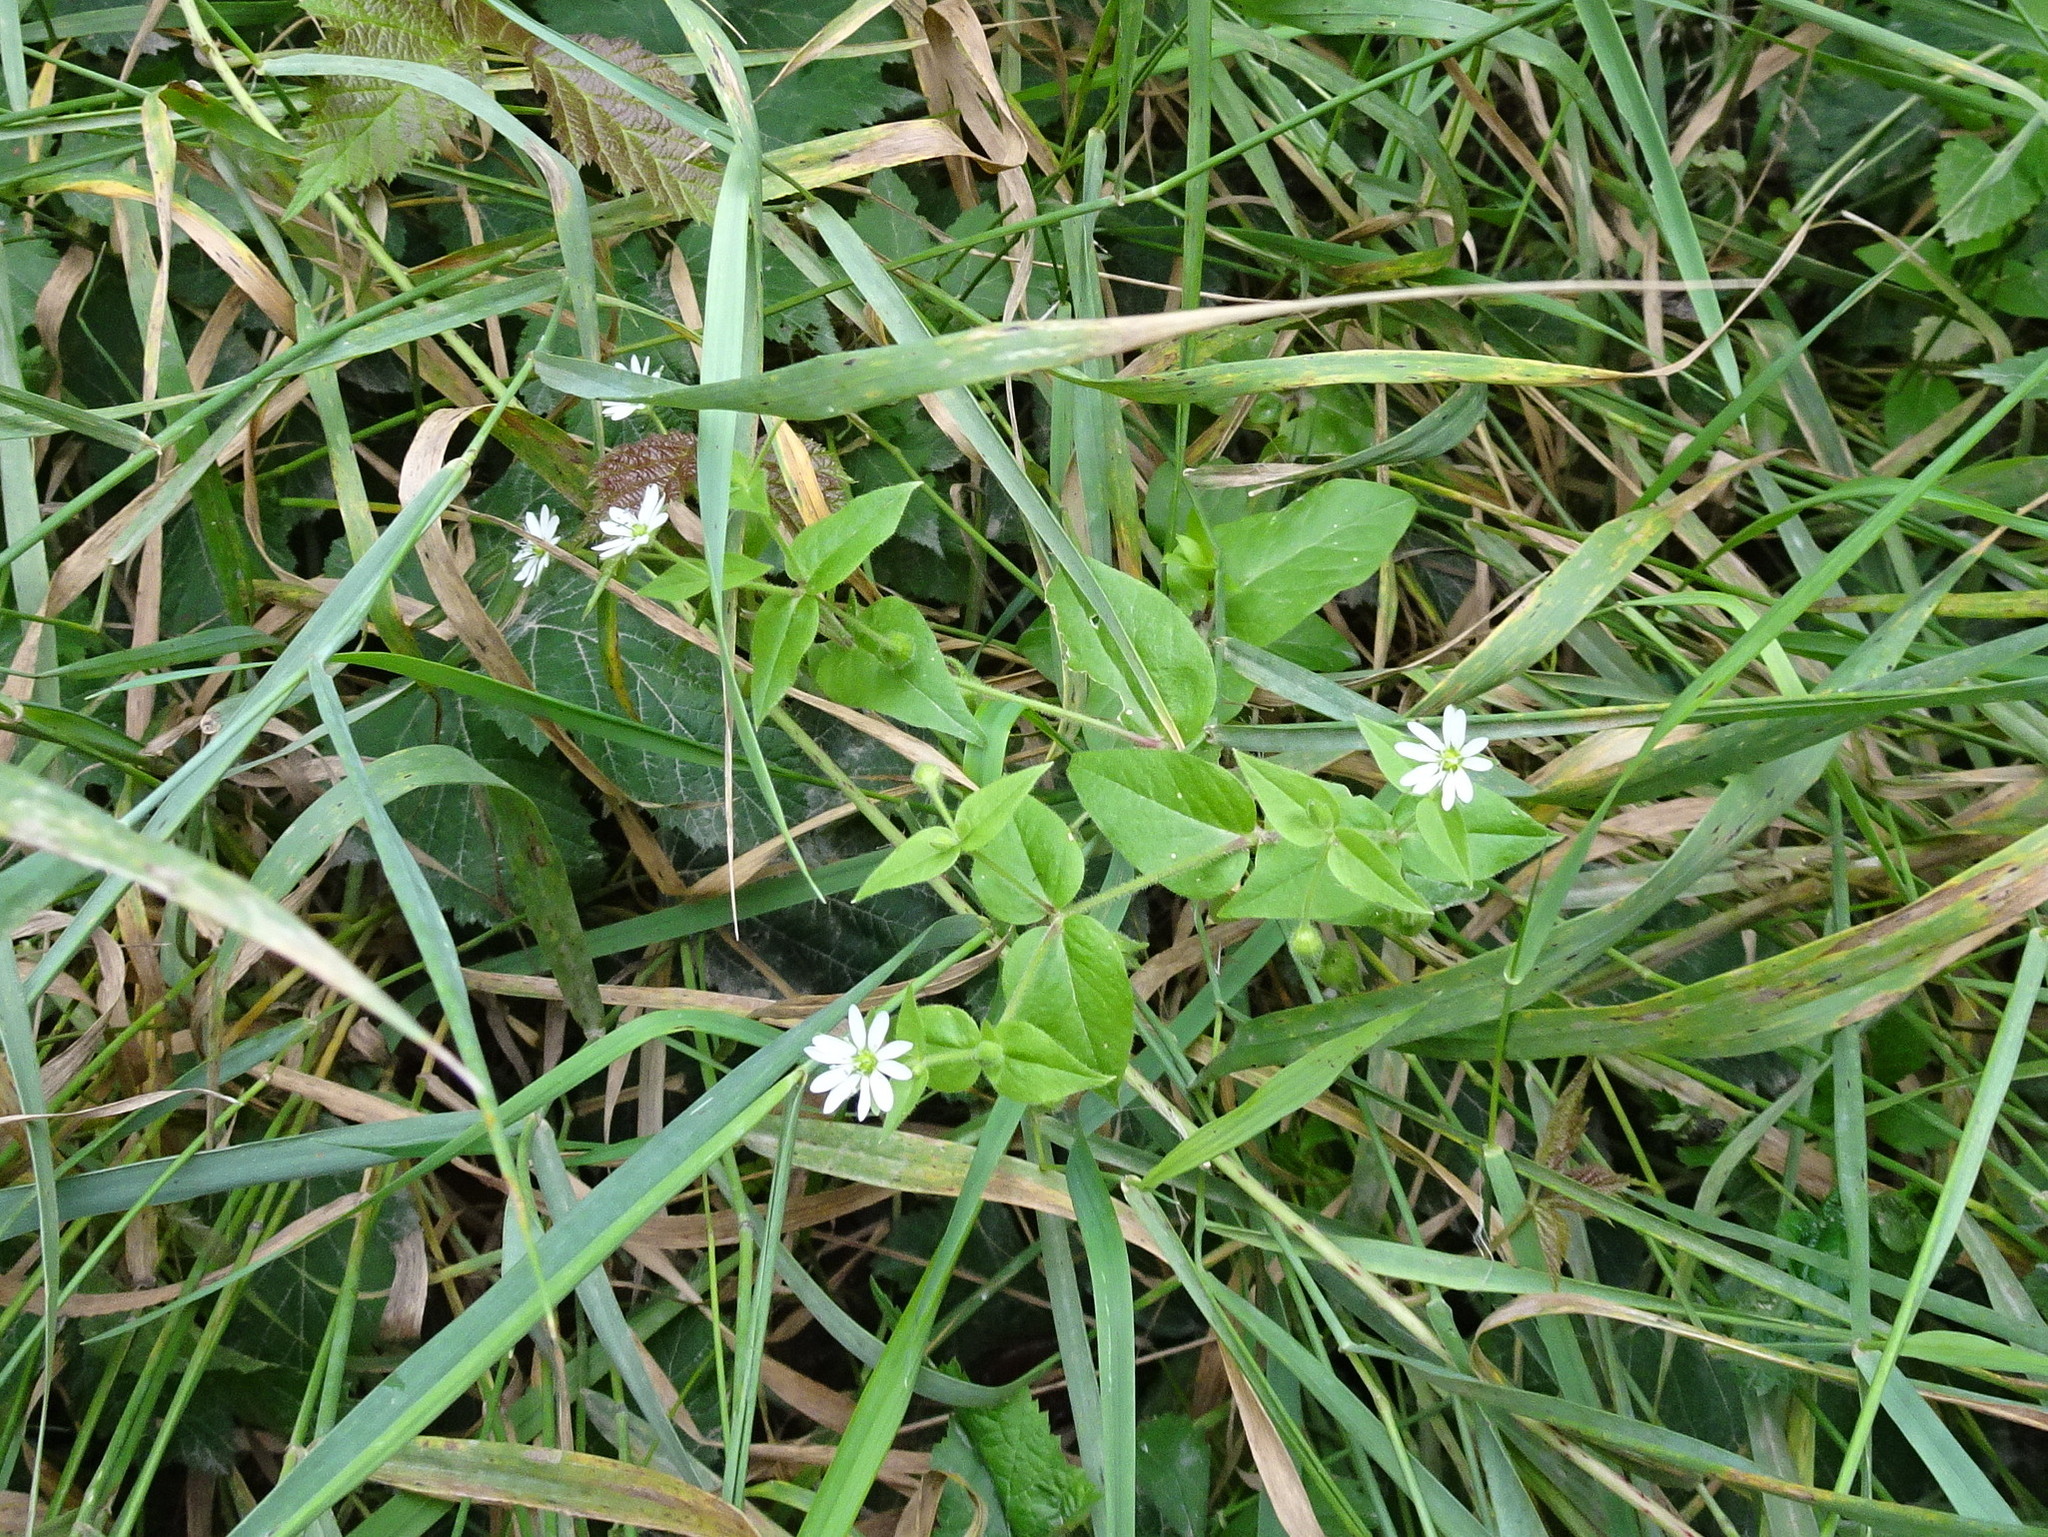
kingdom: Plantae
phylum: Tracheophyta
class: Magnoliopsida
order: Caryophyllales
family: Caryophyllaceae
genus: Stellaria
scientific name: Stellaria aquatica
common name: Water chickweed
